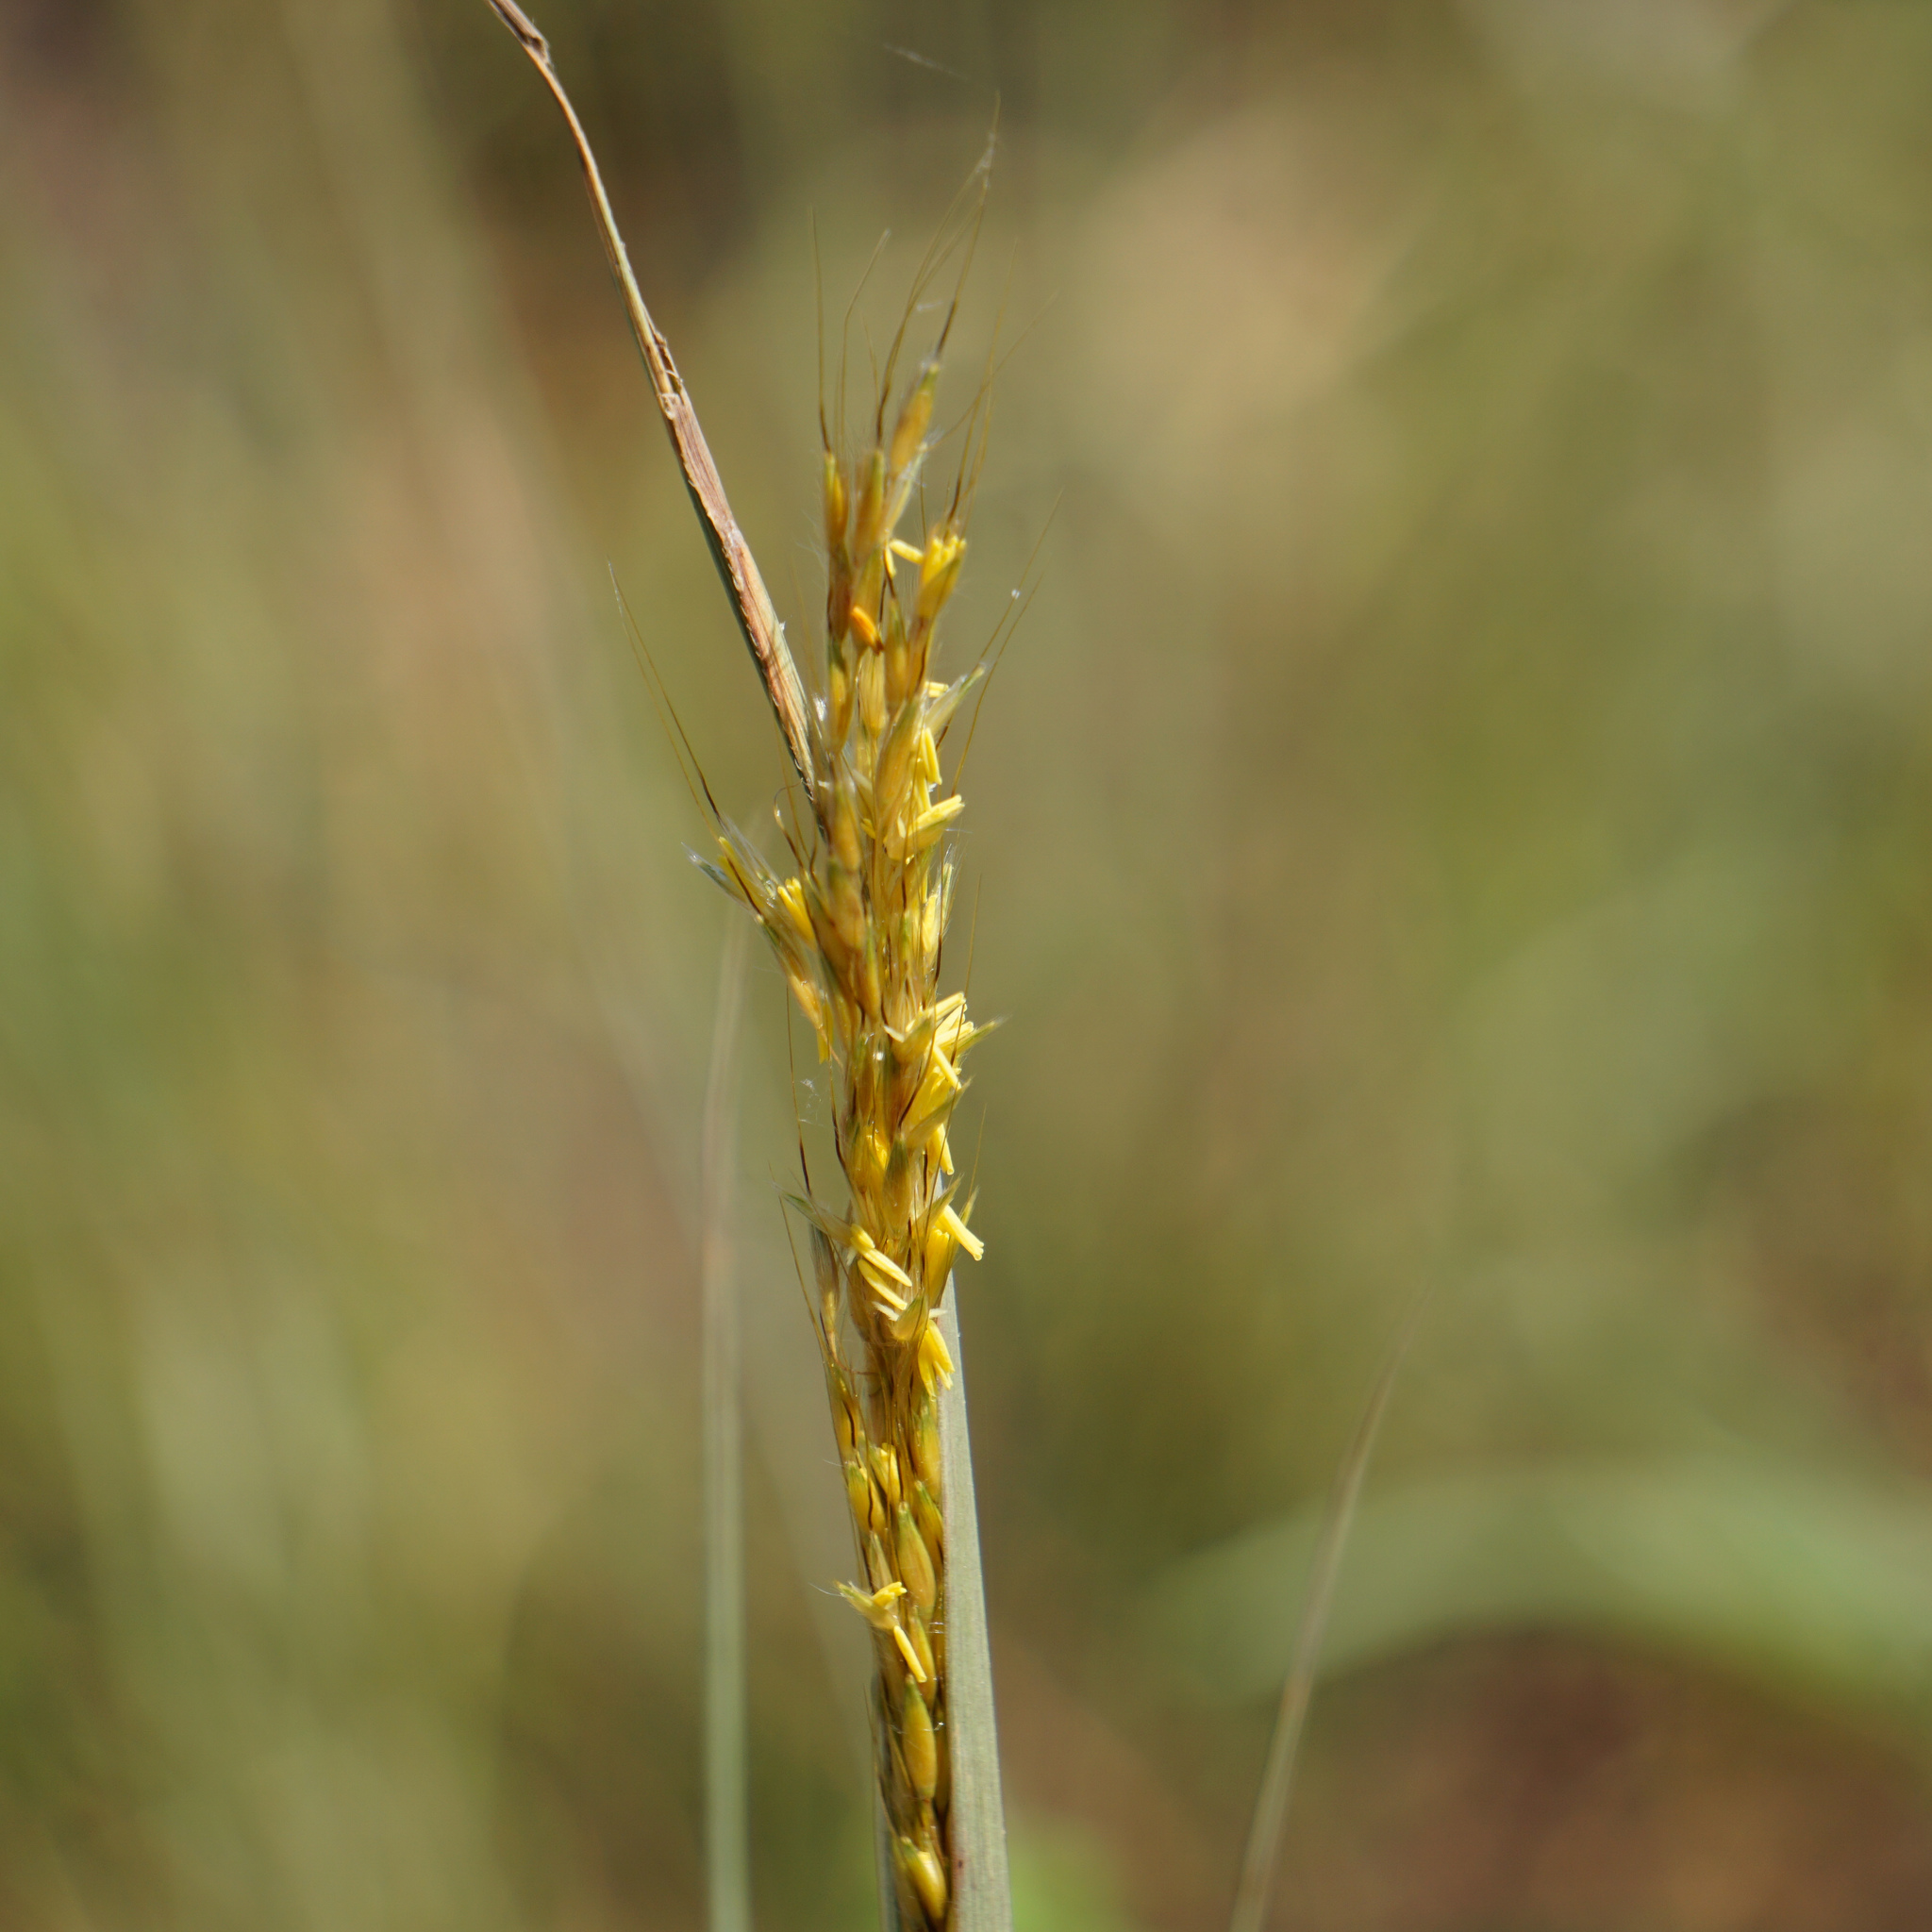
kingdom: Plantae
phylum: Tracheophyta
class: Liliopsida
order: Poales
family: Poaceae
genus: Sorghastrum
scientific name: Sorghastrum nutans
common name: Indian grass
